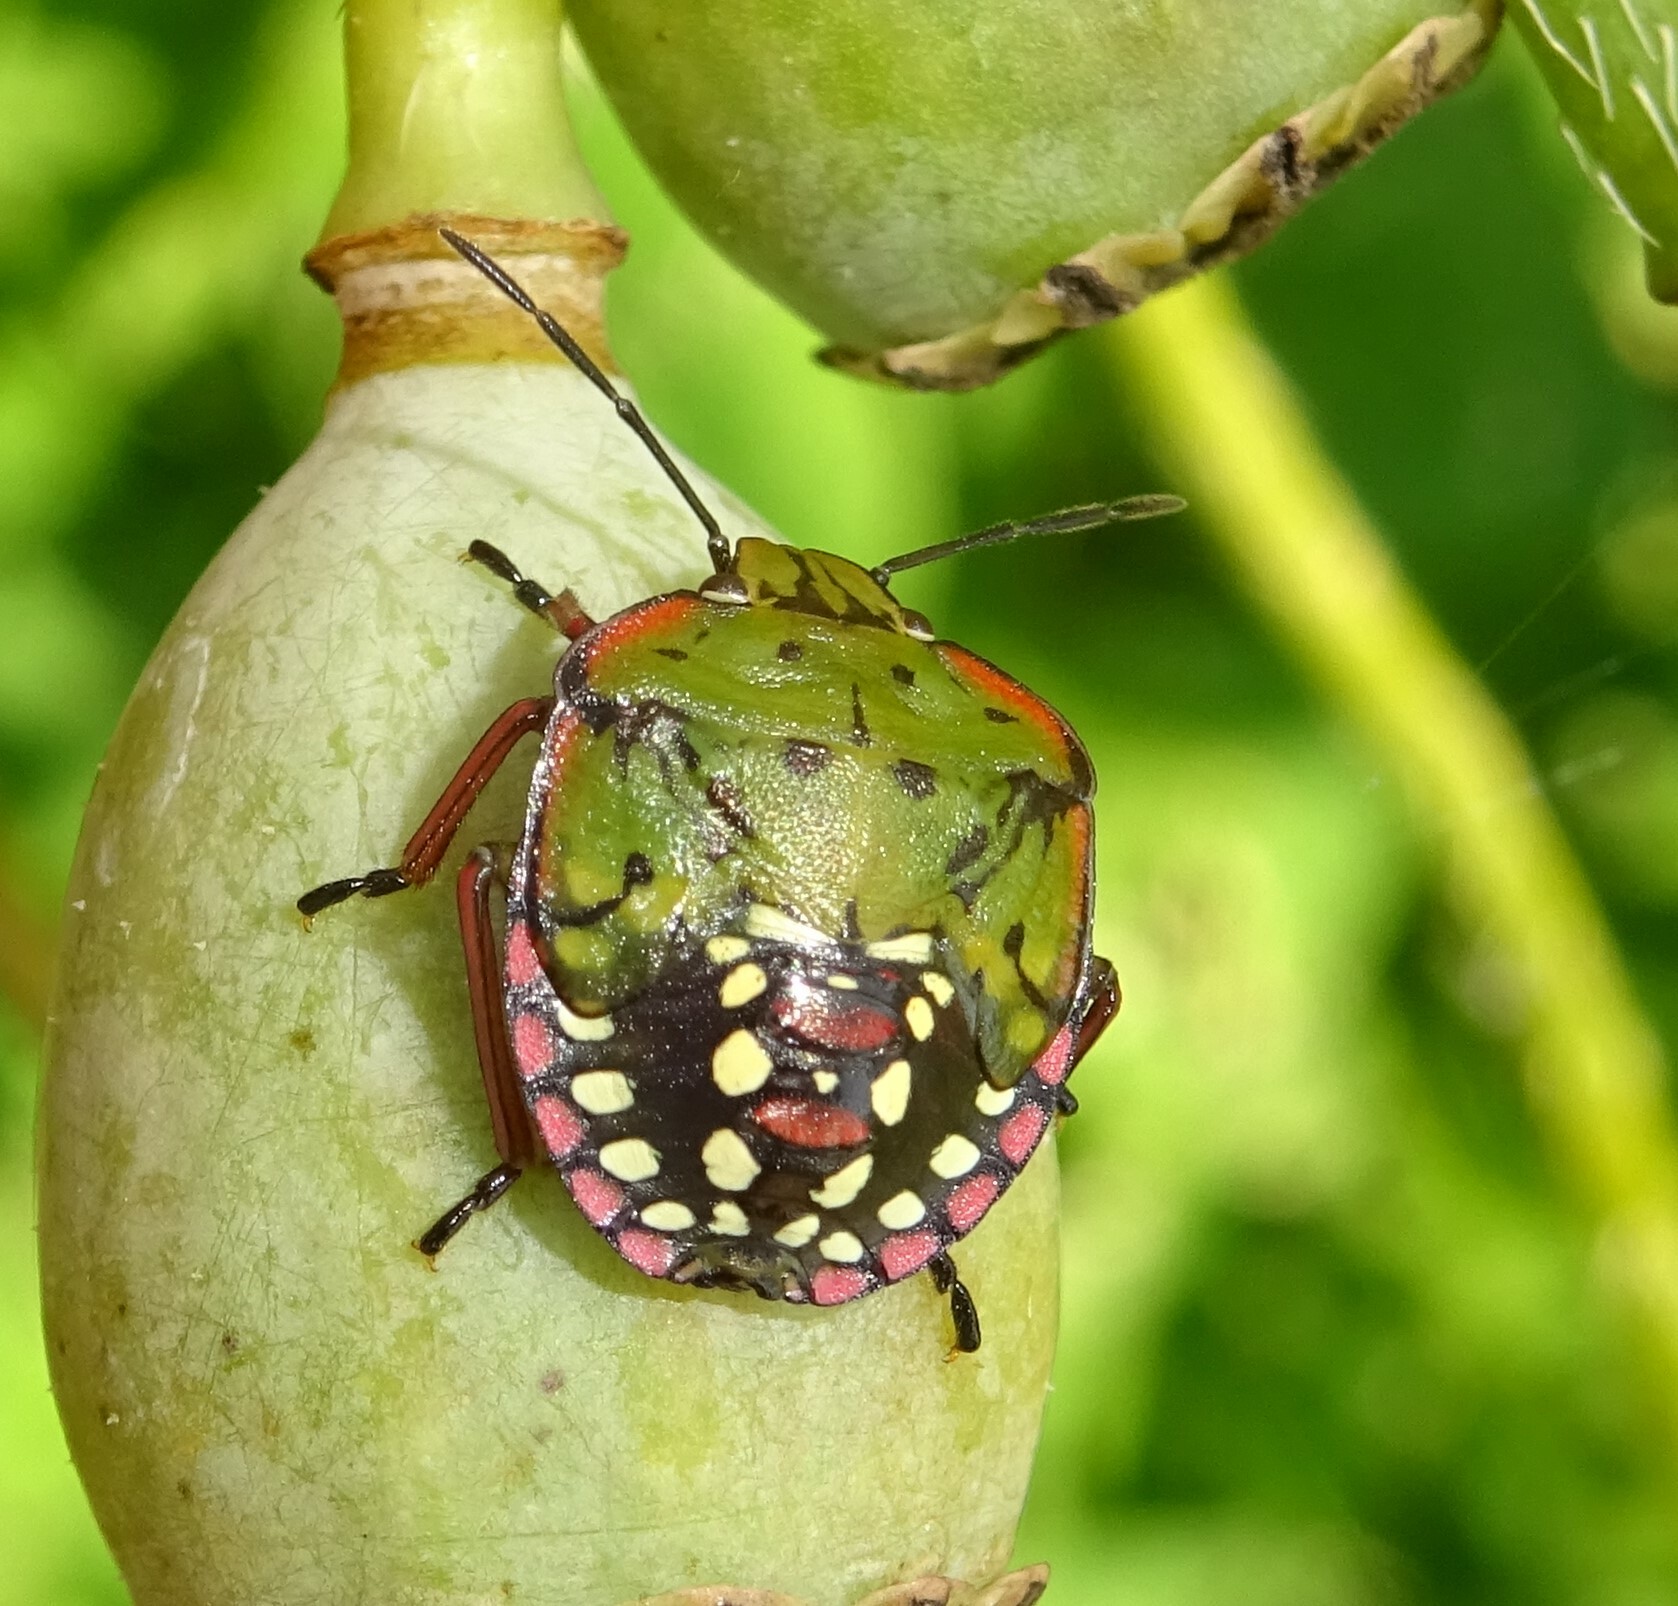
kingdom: Animalia
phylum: Arthropoda
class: Insecta
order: Hemiptera
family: Pentatomidae
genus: Nezara
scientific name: Nezara viridula
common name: Southern green stink bug
